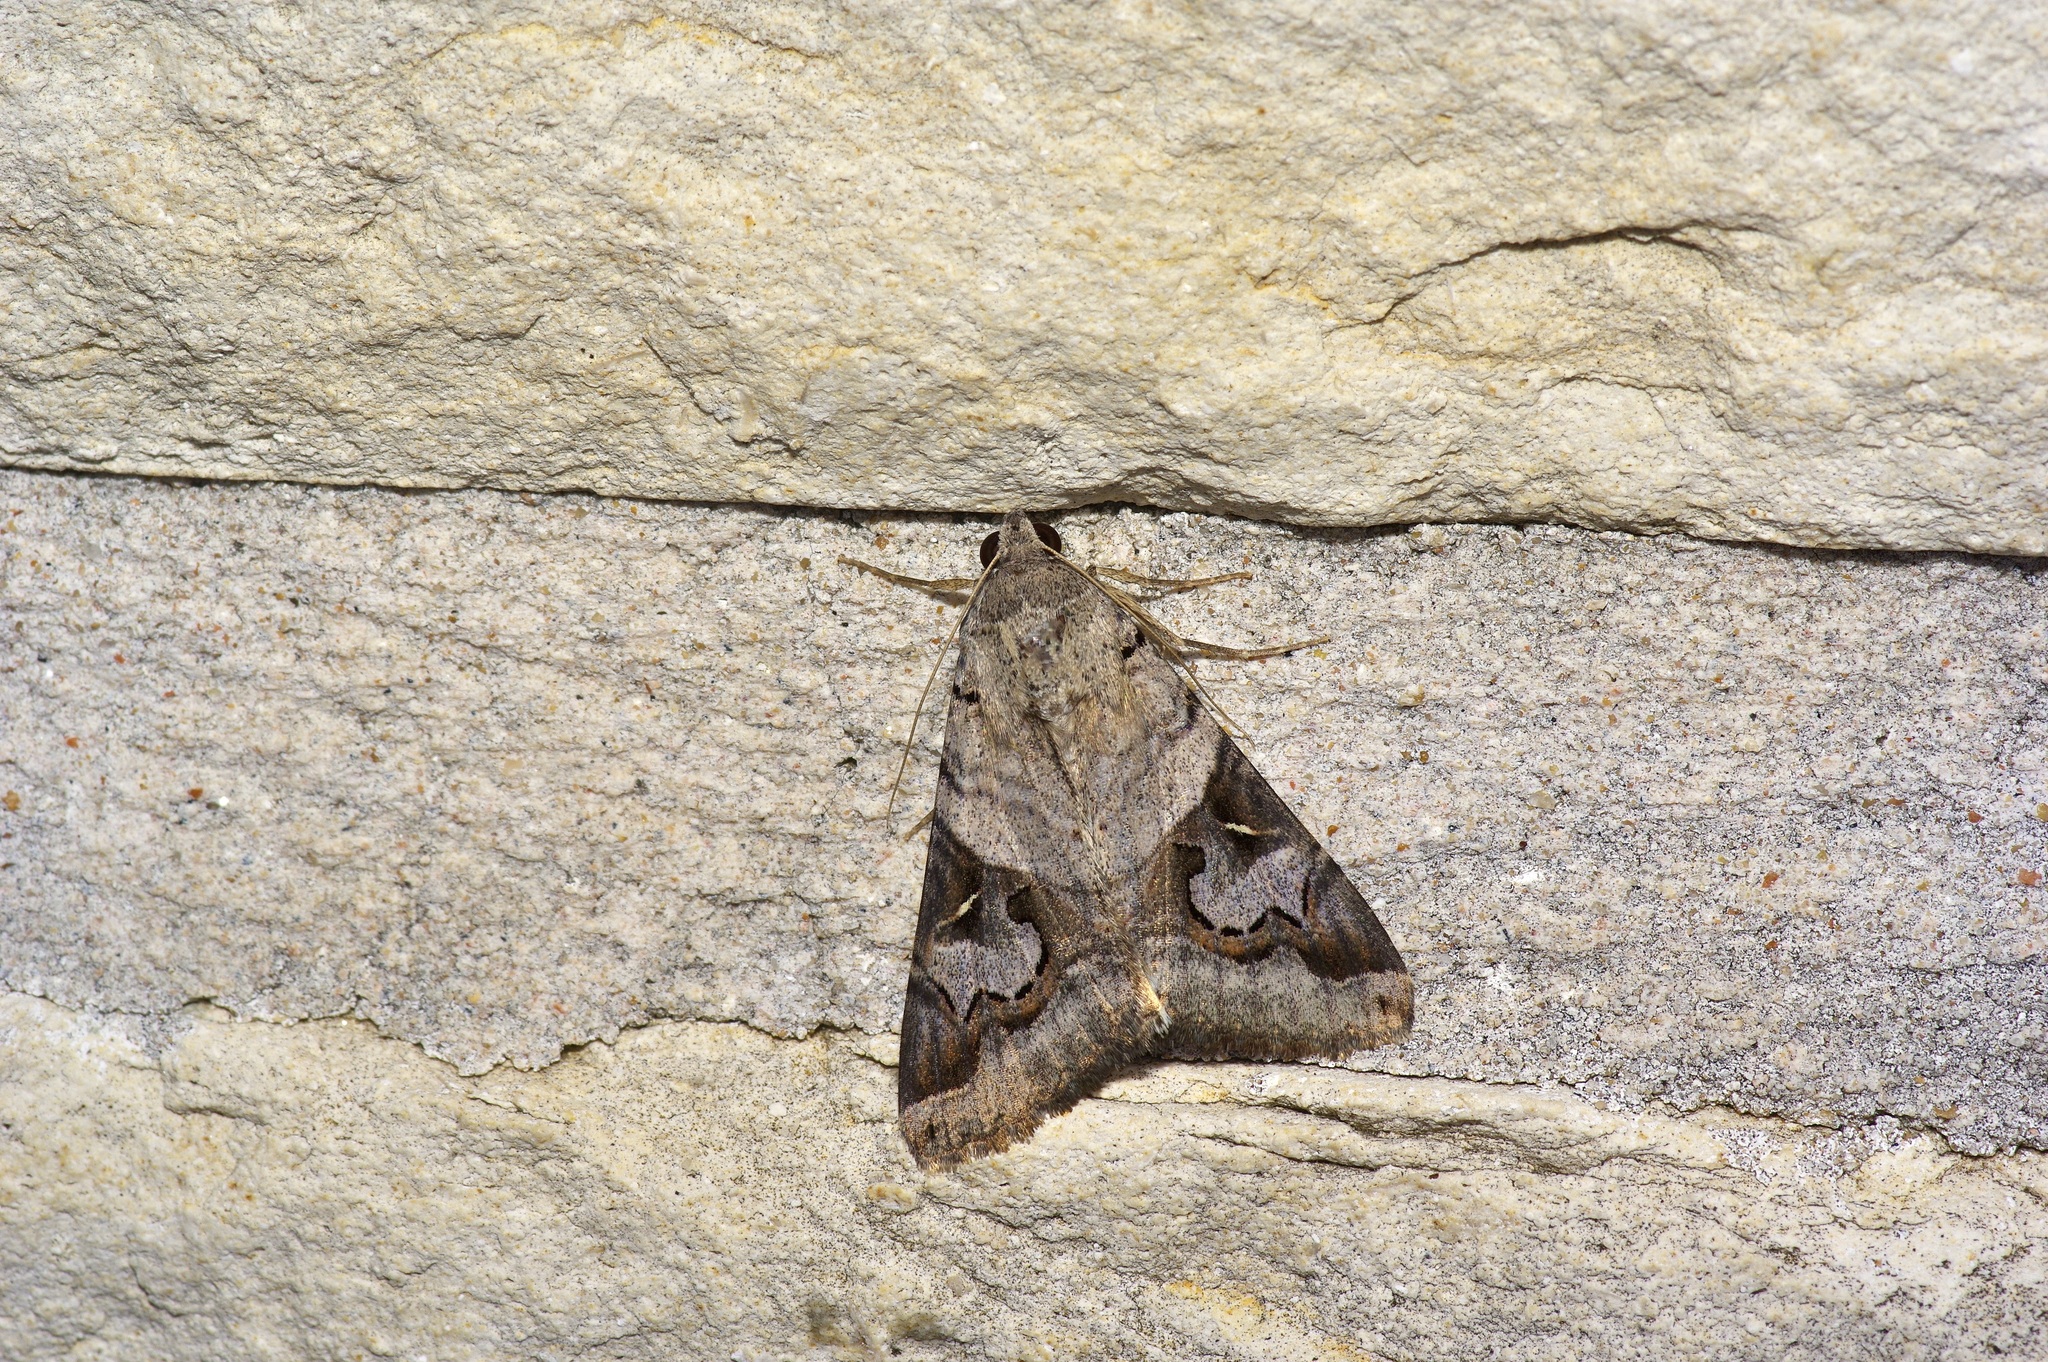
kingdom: Animalia
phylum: Arthropoda
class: Insecta
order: Lepidoptera
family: Erebidae
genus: Melipotis
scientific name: Melipotis indomita
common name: Moth
